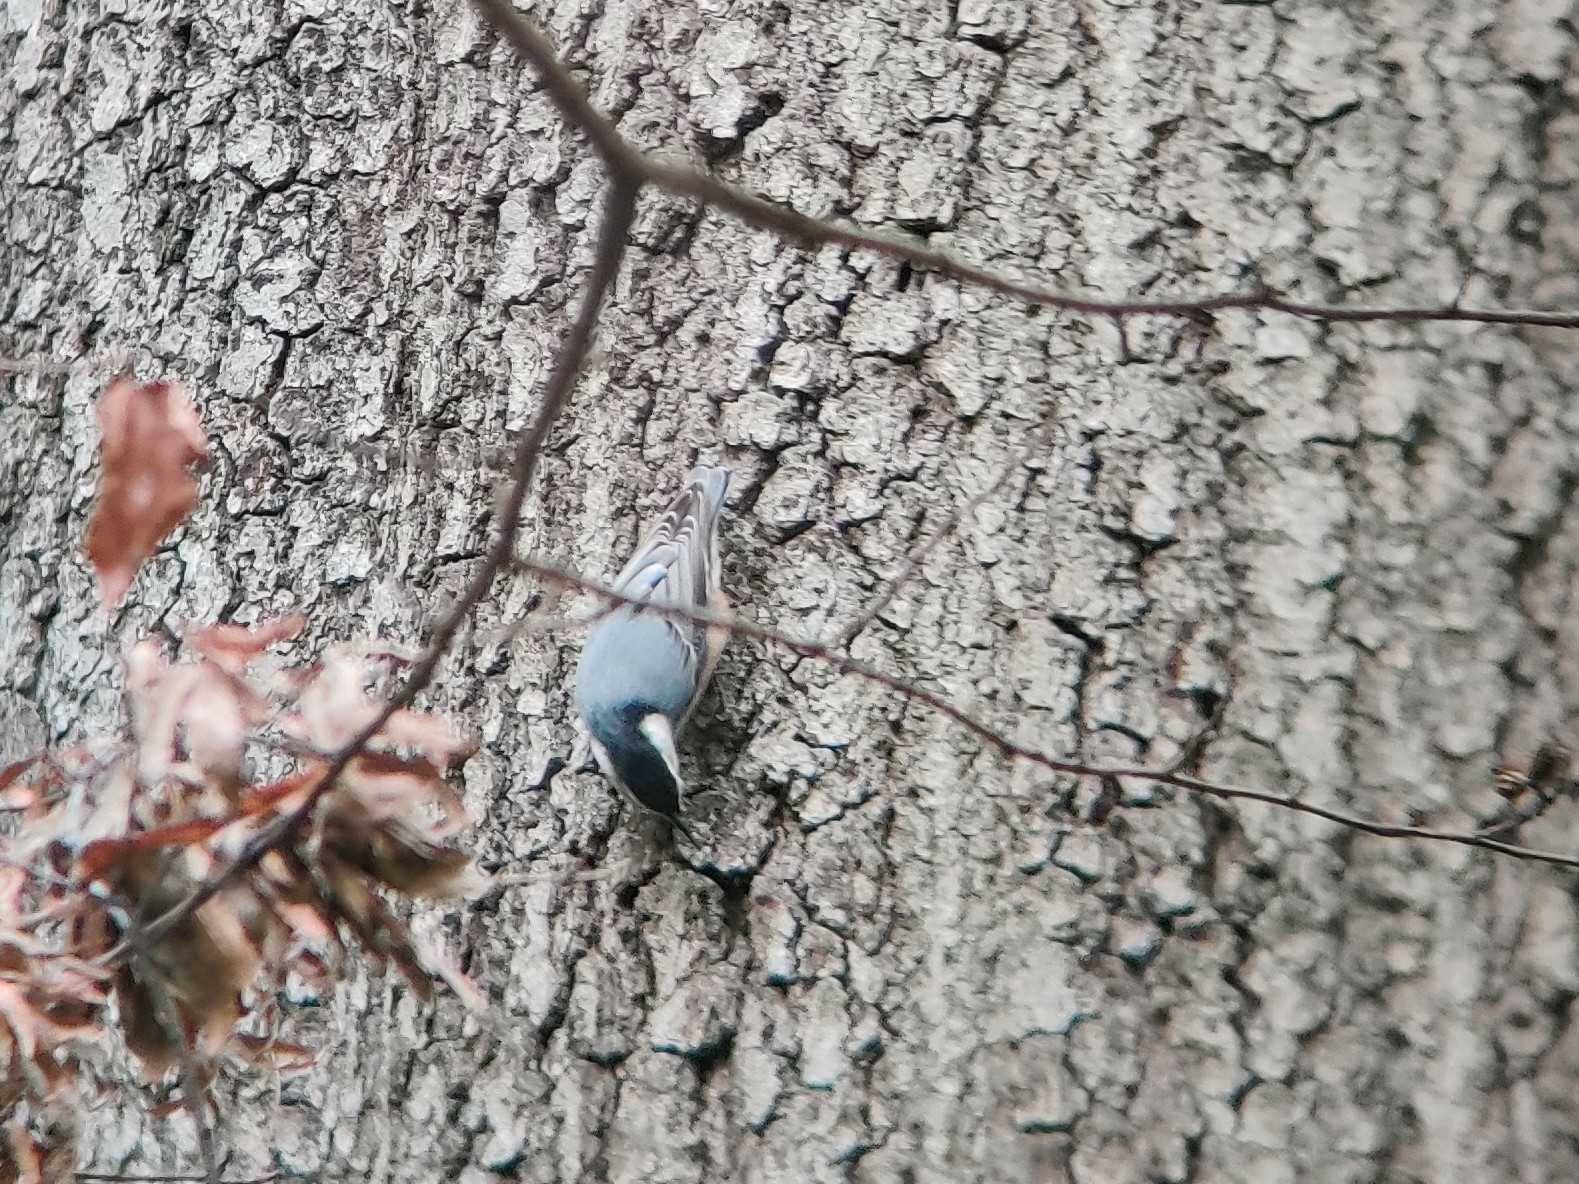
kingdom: Animalia
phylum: Chordata
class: Aves
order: Passeriformes
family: Sittidae
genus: Sitta
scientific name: Sitta carolinensis
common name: White-breasted nuthatch
